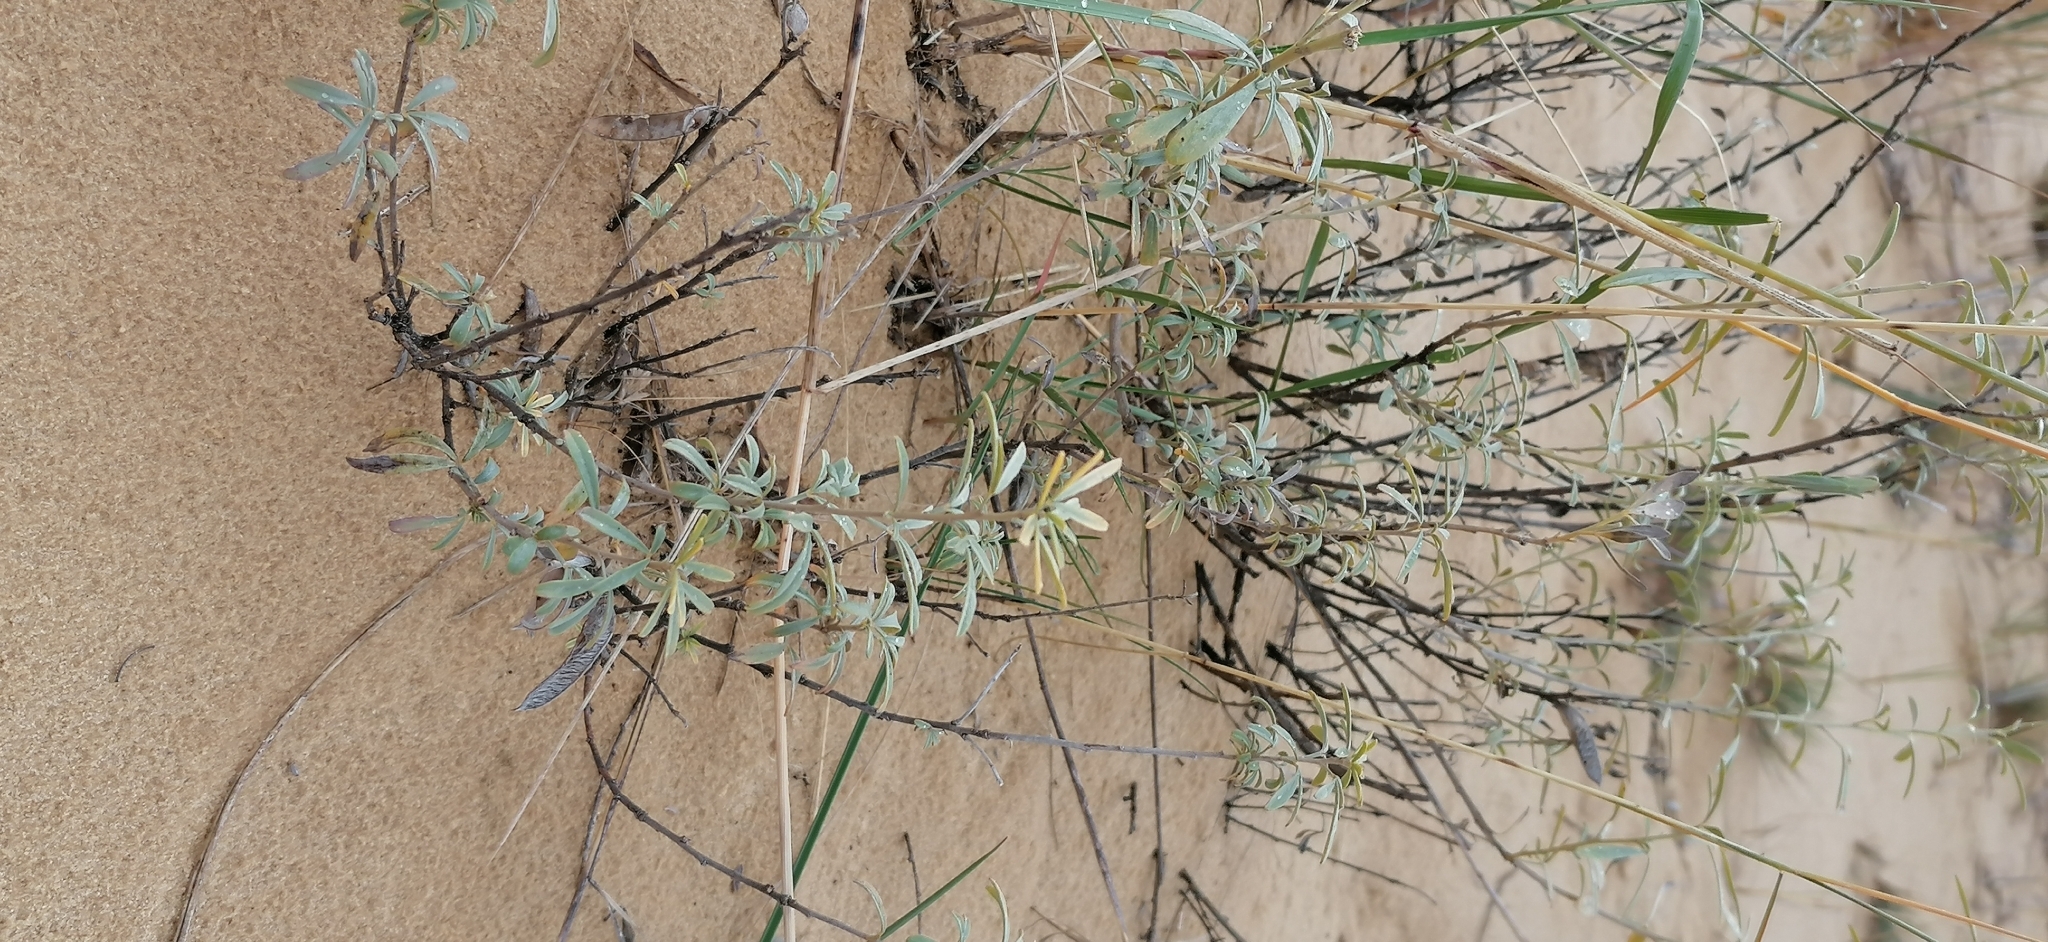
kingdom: Plantae
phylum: Tracheophyta
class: Magnoliopsida
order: Fabales
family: Fabaceae
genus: Chamaecytisus
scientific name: Chamaecytisus borysthenicus
